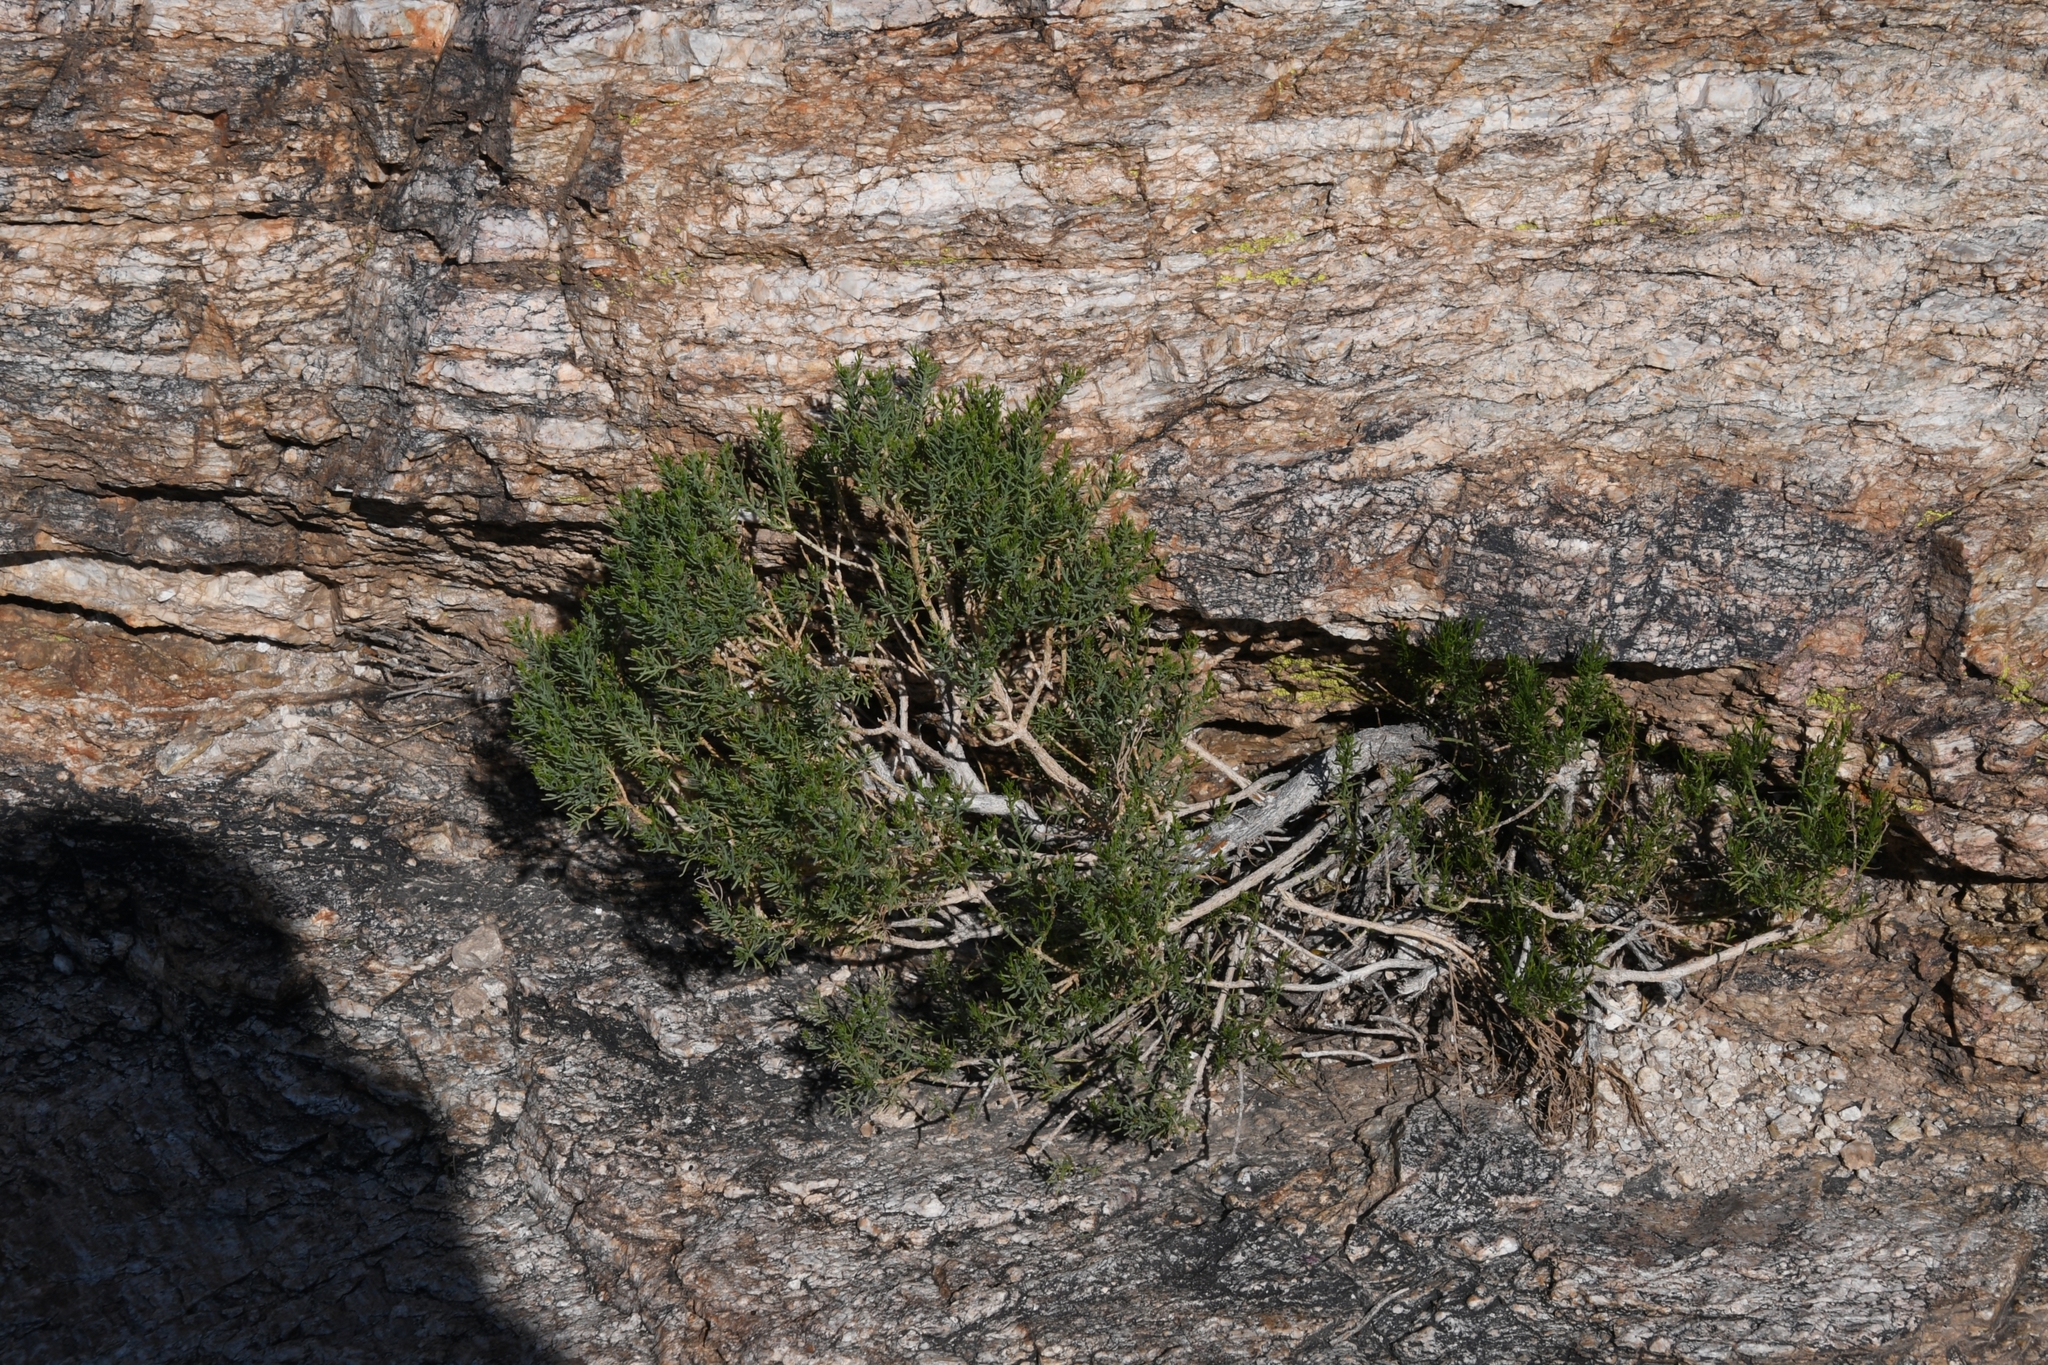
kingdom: Plantae
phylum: Tracheophyta
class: Magnoliopsida
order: Asterales
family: Asteraceae
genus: Ericameria
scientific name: Ericameria laricifolia
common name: Turpentine-bush
